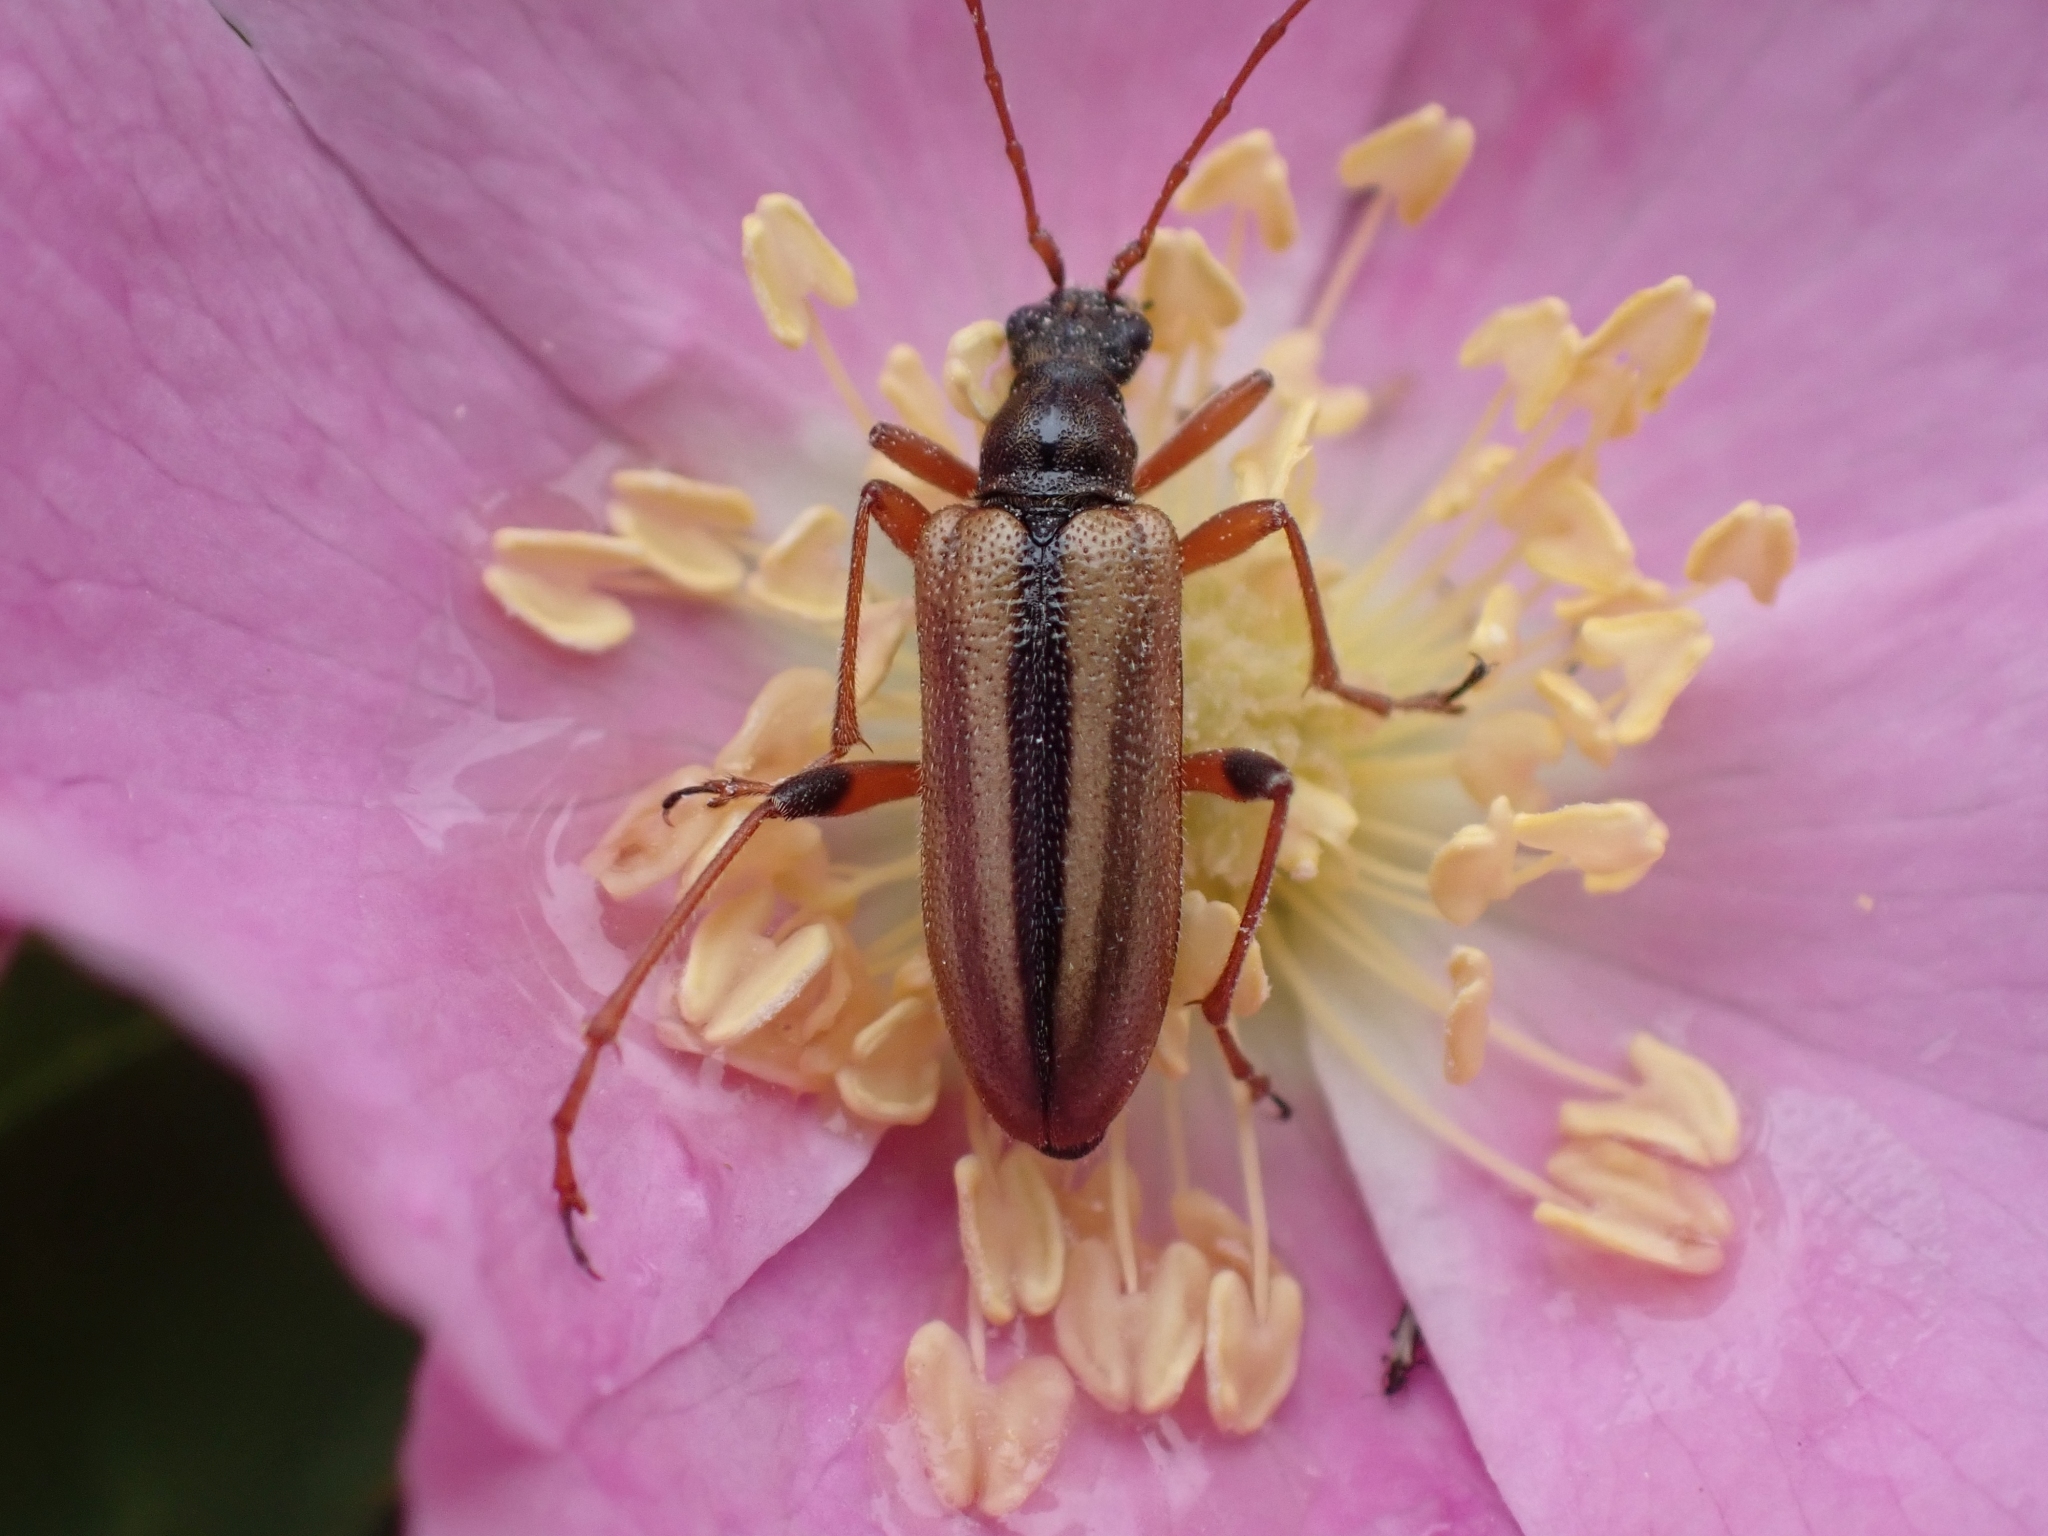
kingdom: Animalia
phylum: Arthropoda
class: Insecta
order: Coleoptera
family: Cerambycidae
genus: Cortodera
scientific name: Cortodera longicornis
